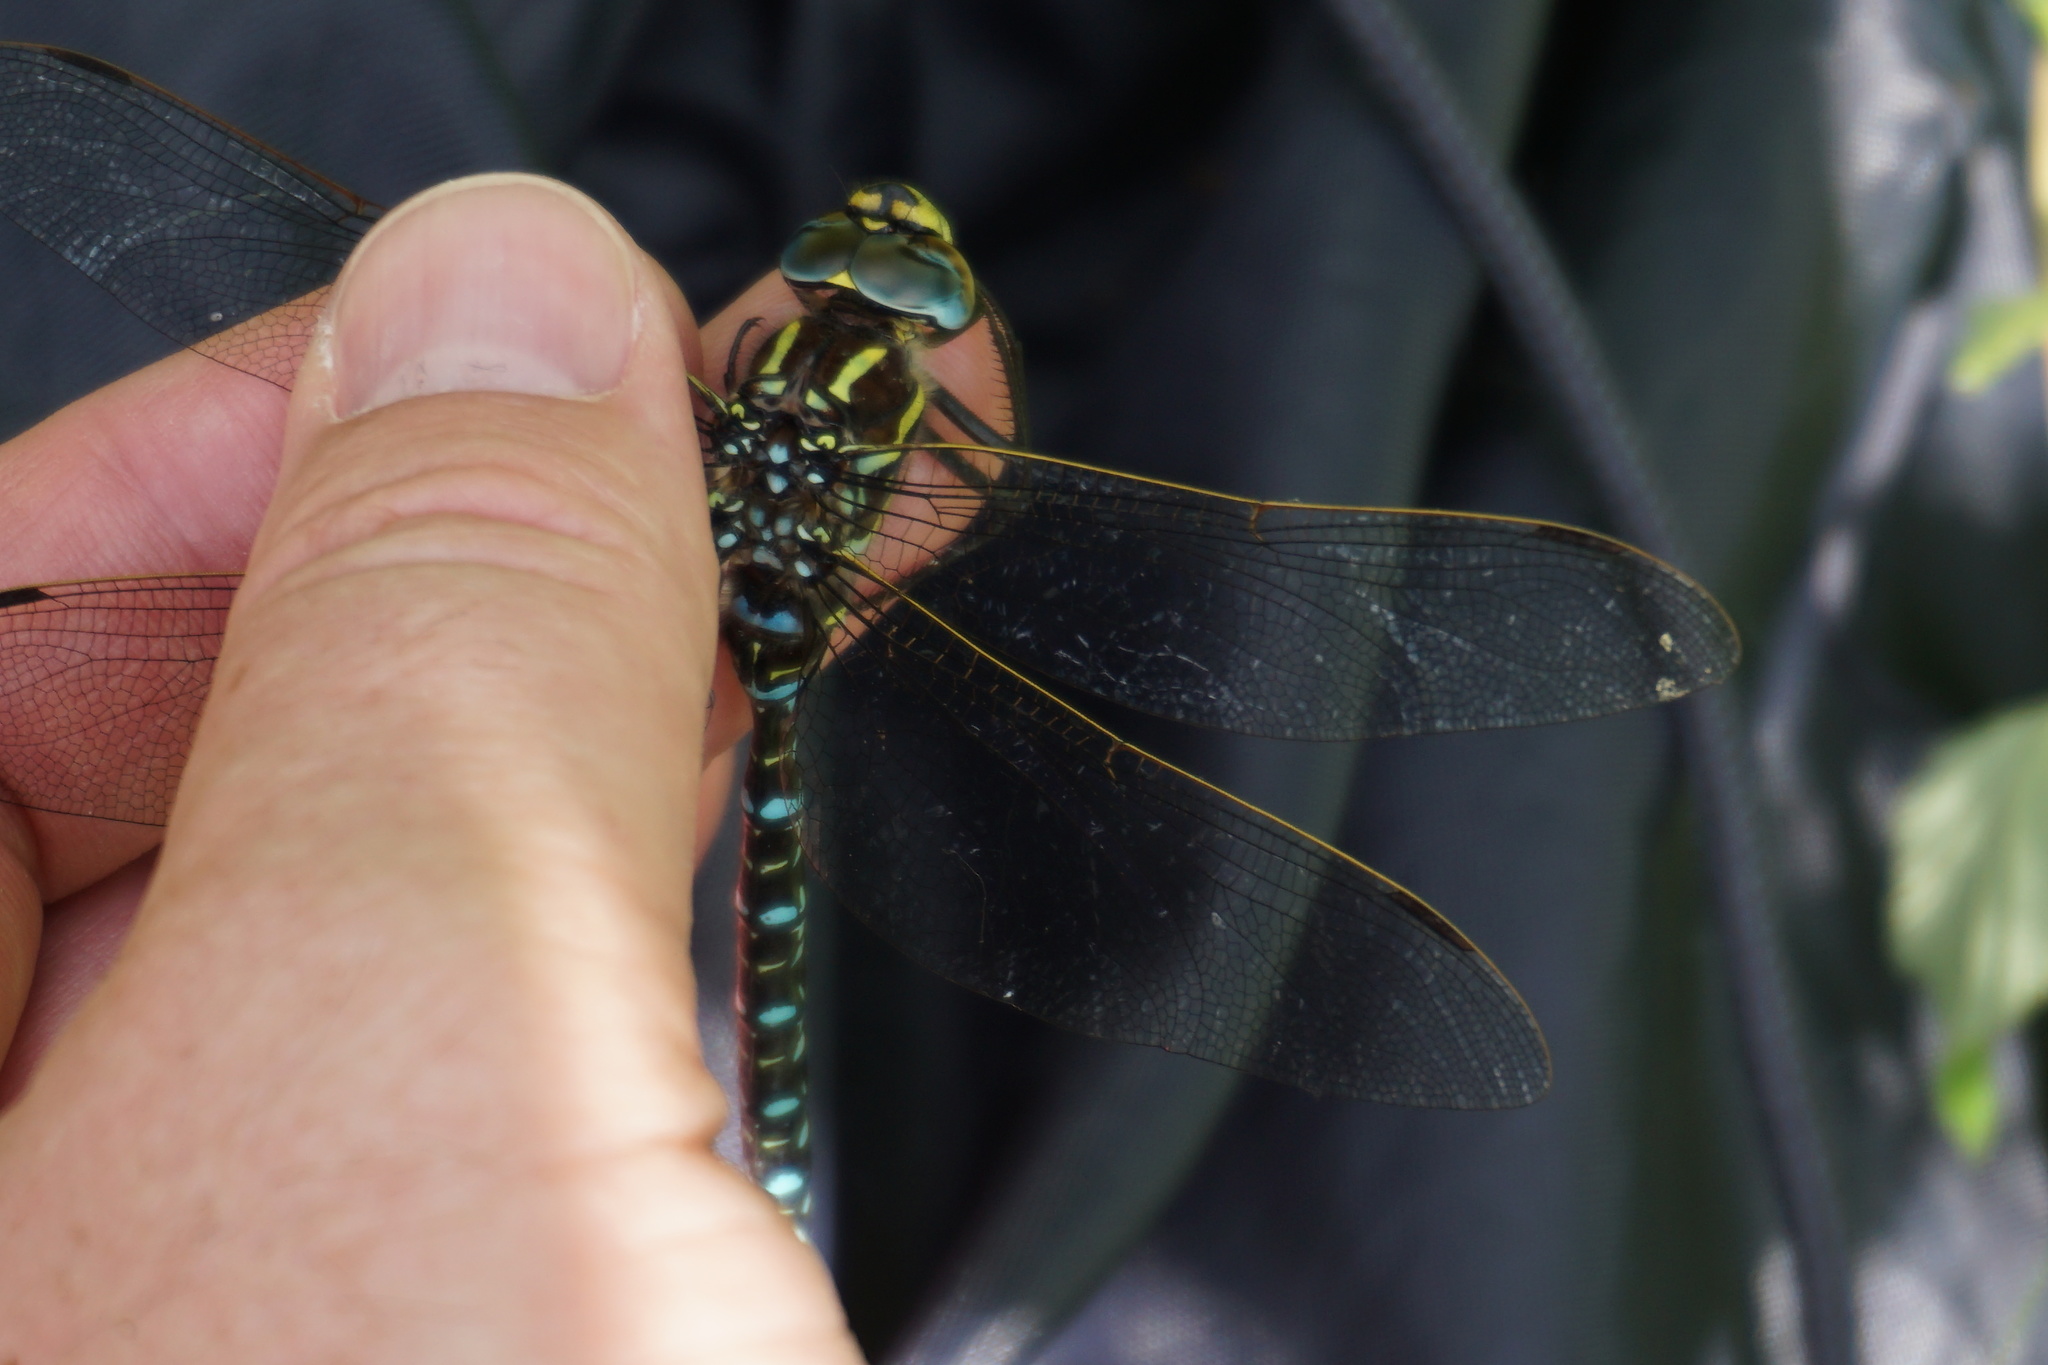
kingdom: Animalia
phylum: Arthropoda
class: Insecta
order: Odonata
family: Aeshnidae
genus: Aeshna
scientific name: Aeshna juncea
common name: Moorland hawker
